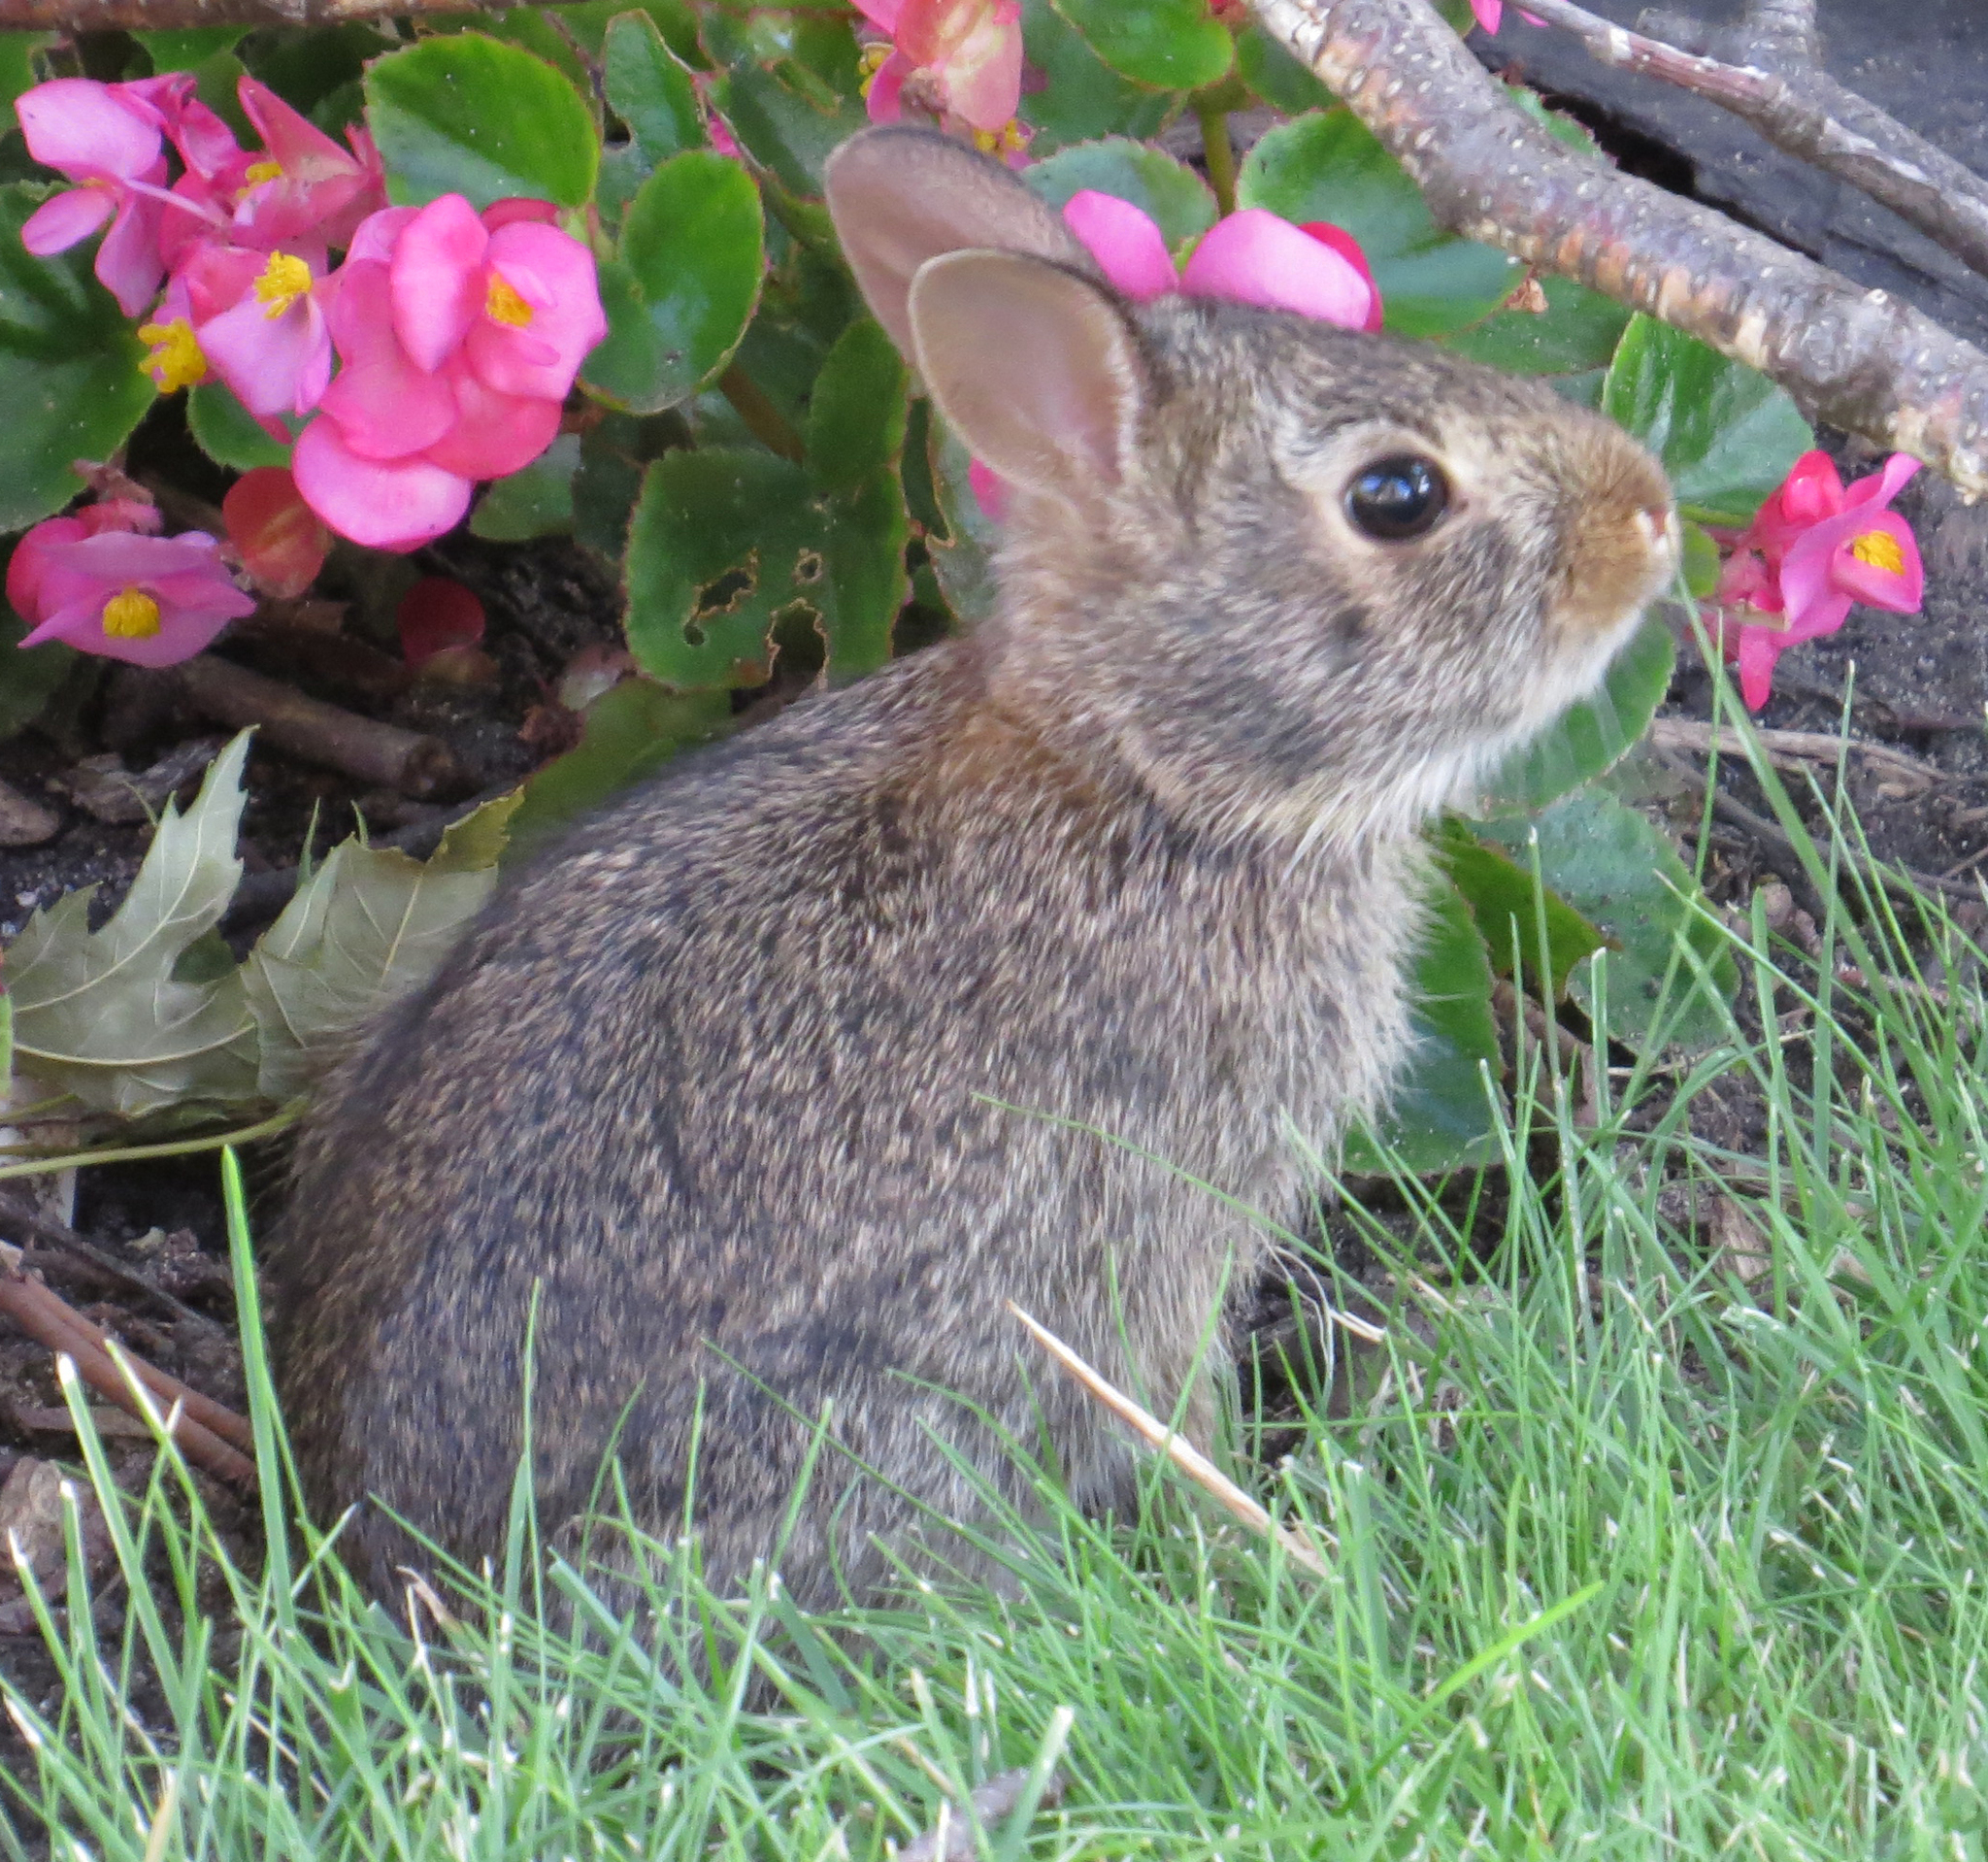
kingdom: Animalia
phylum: Chordata
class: Mammalia
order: Lagomorpha
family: Leporidae
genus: Sylvilagus
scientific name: Sylvilagus floridanus
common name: Eastern cottontail
